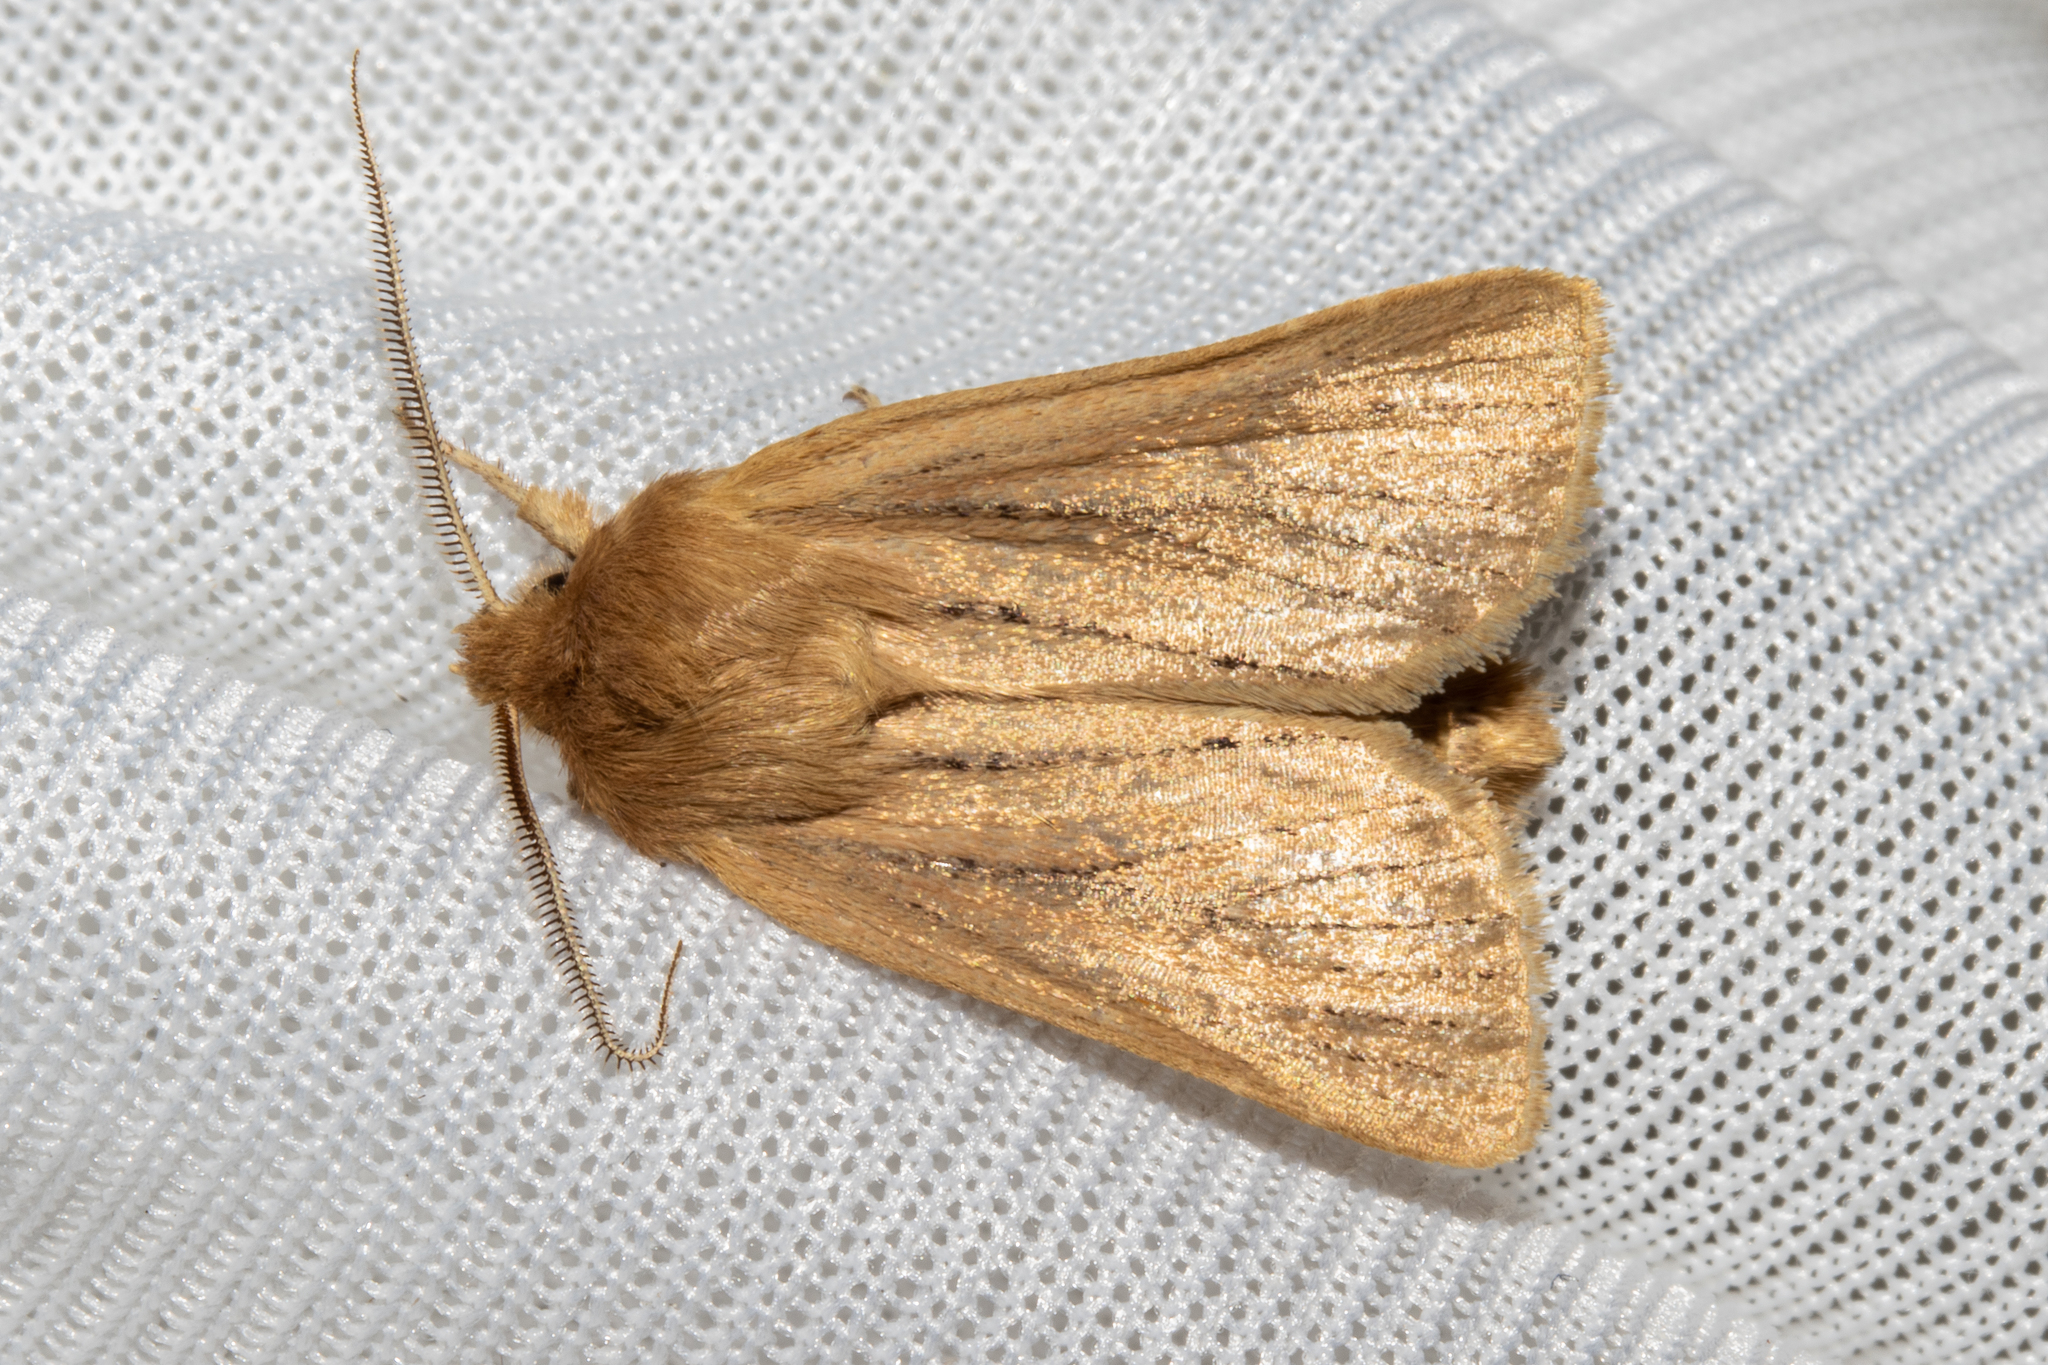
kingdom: Animalia
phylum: Arthropoda
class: Insecta
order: Lepidoptera
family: Noctuidae
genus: Ichneutica
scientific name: Ichneutica
